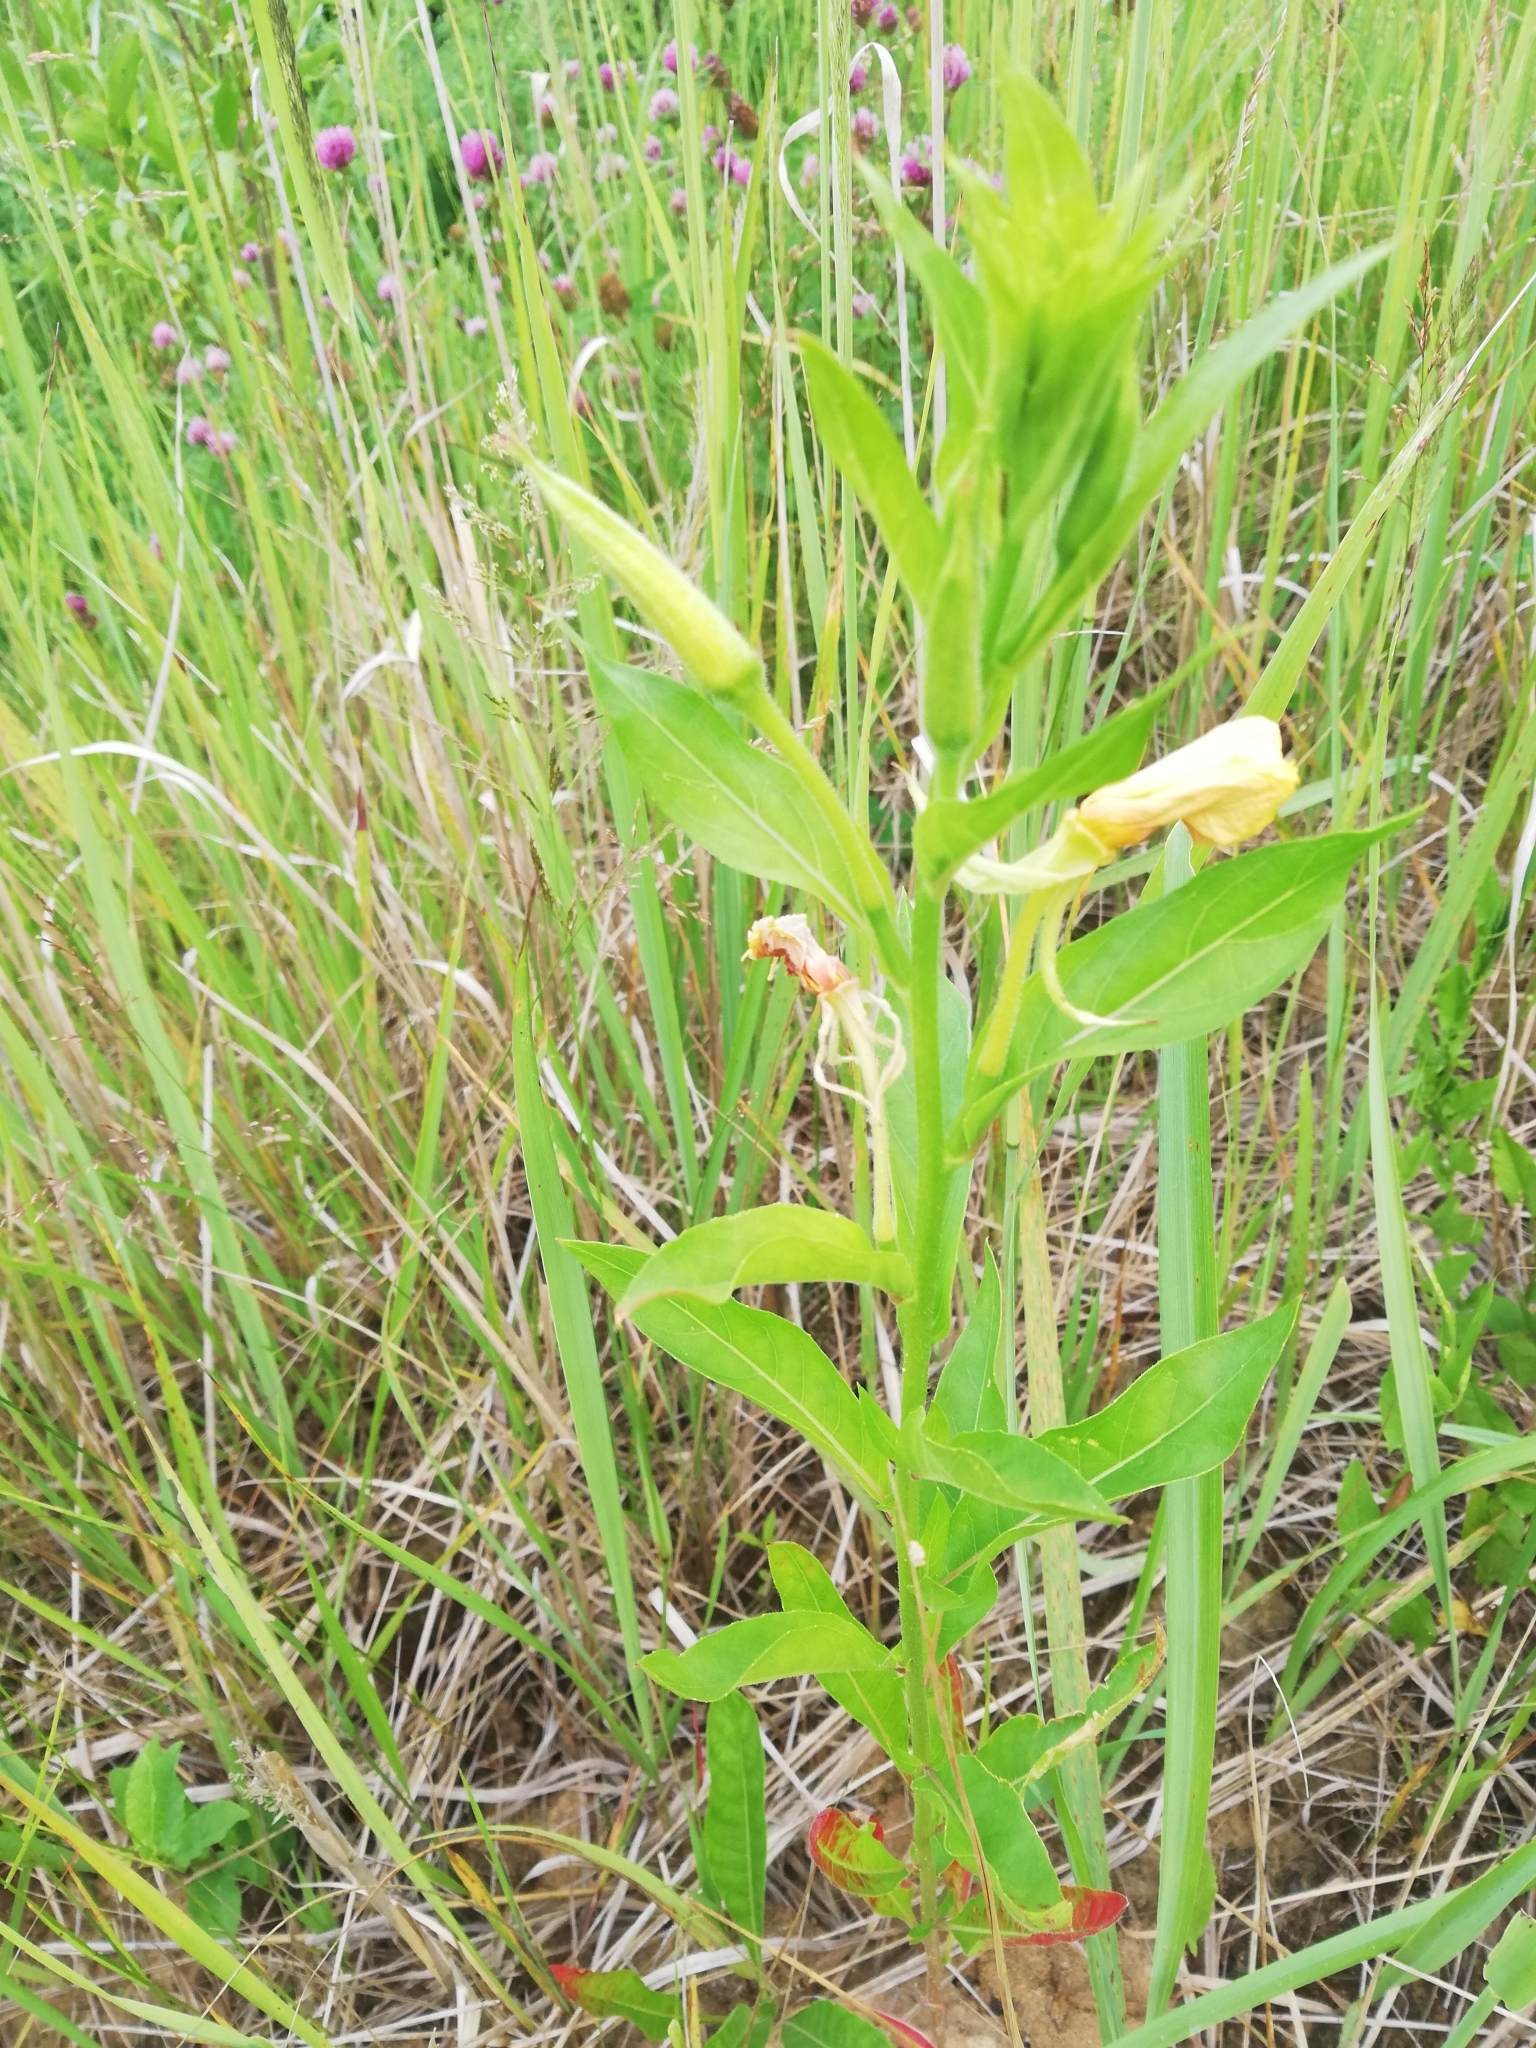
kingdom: Plantae
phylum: Tracheophyta
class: Magnoliopsida
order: Myrtales
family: Onagraceae
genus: Oenothera
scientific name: Oenothera biennis
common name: Common evening-primrose
